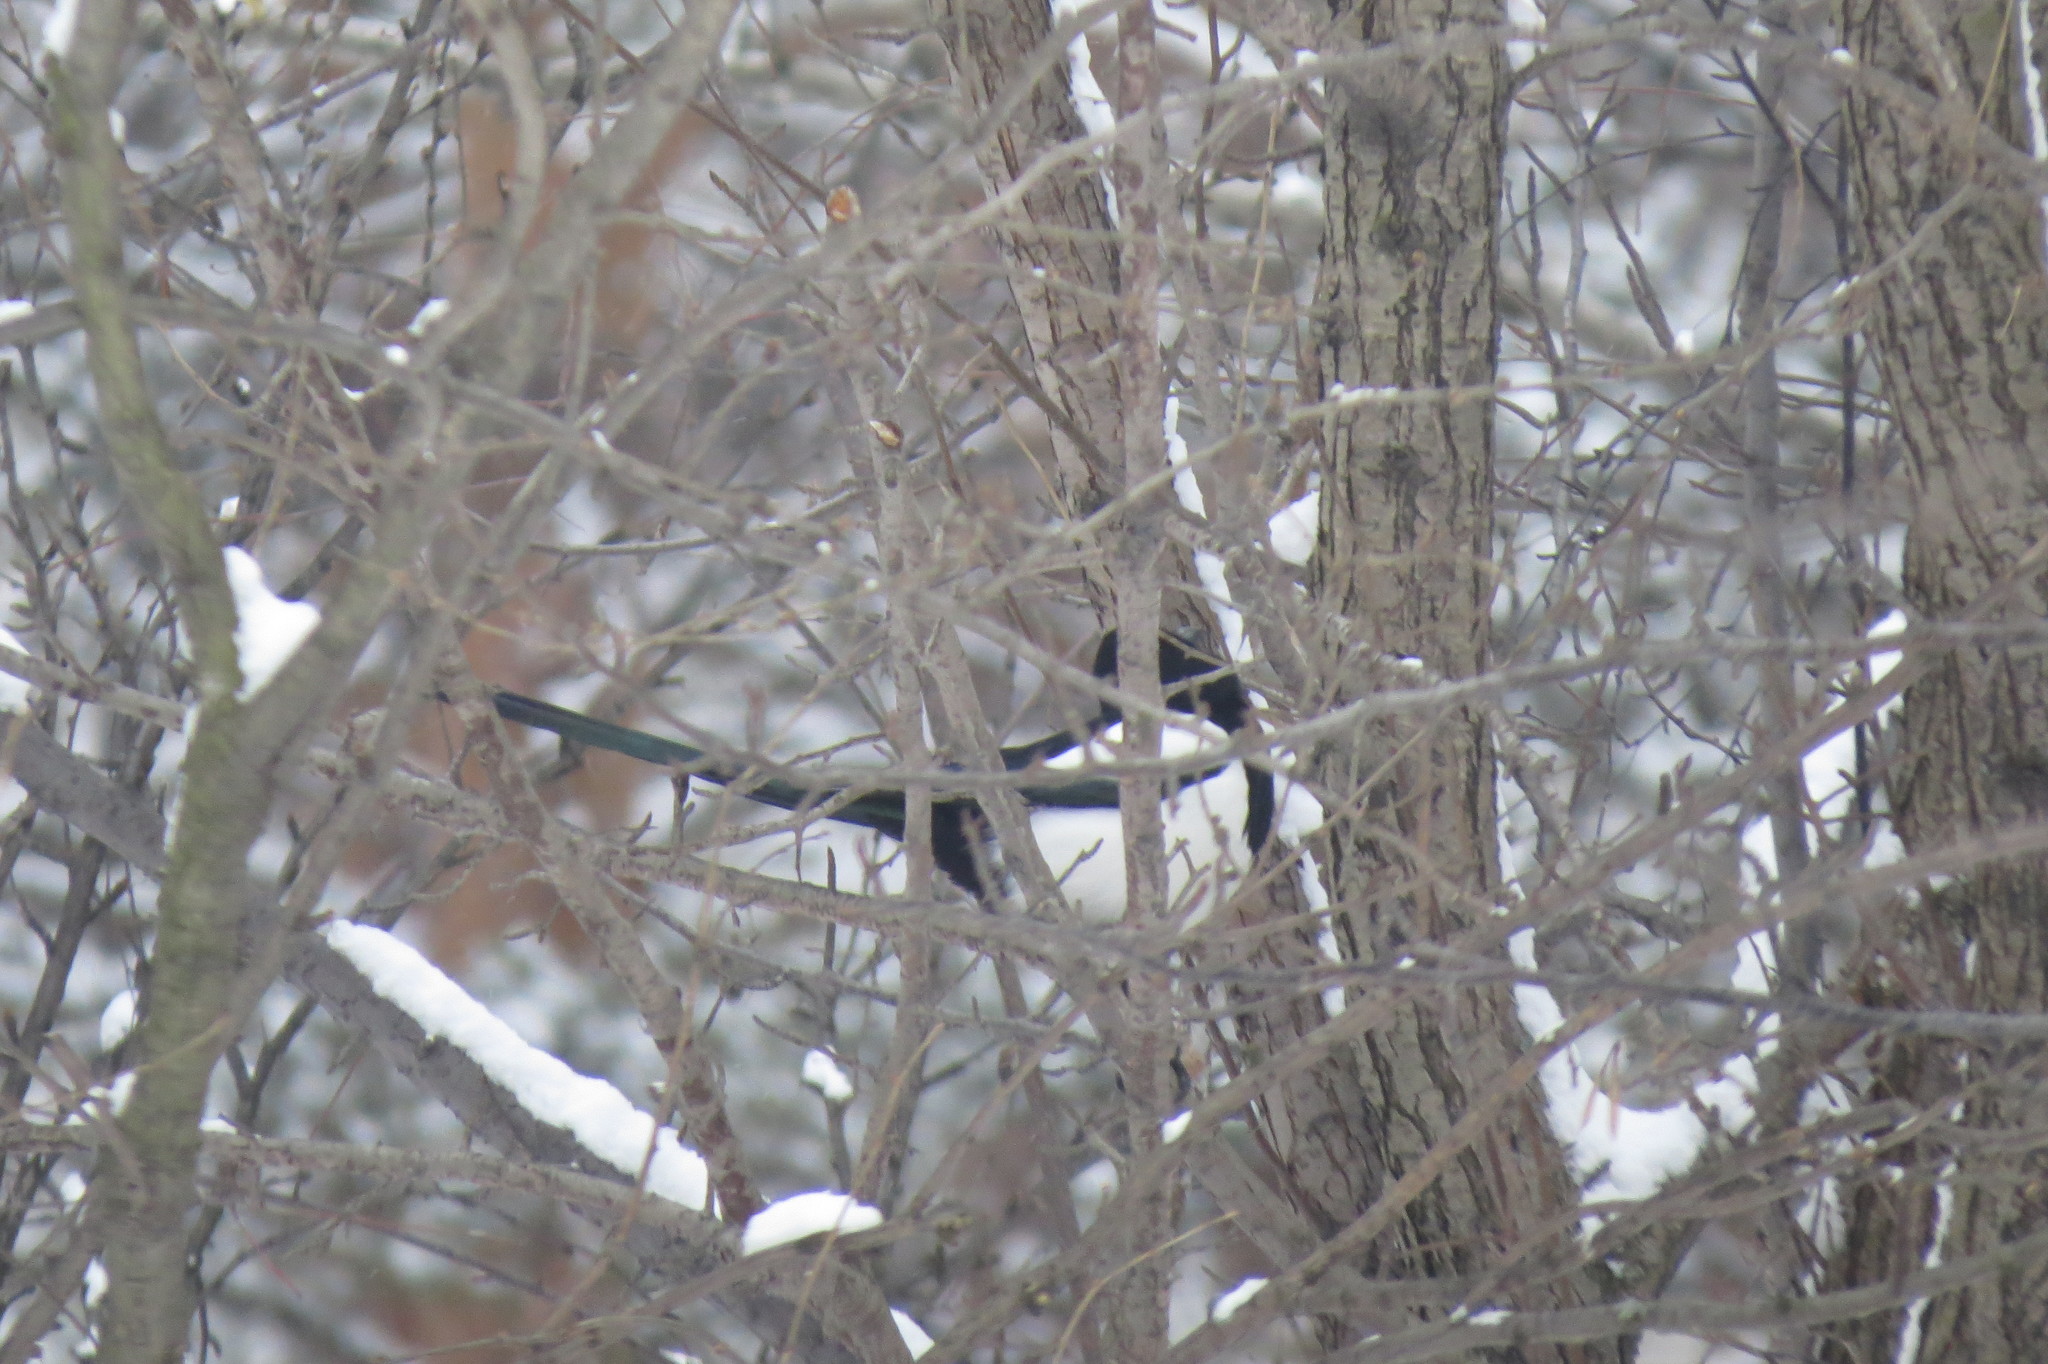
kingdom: Animalia
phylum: Chordata
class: Aves
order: Passeriformes
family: Corvidae
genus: Pica
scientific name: Pica pica
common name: Eurasian magpie
